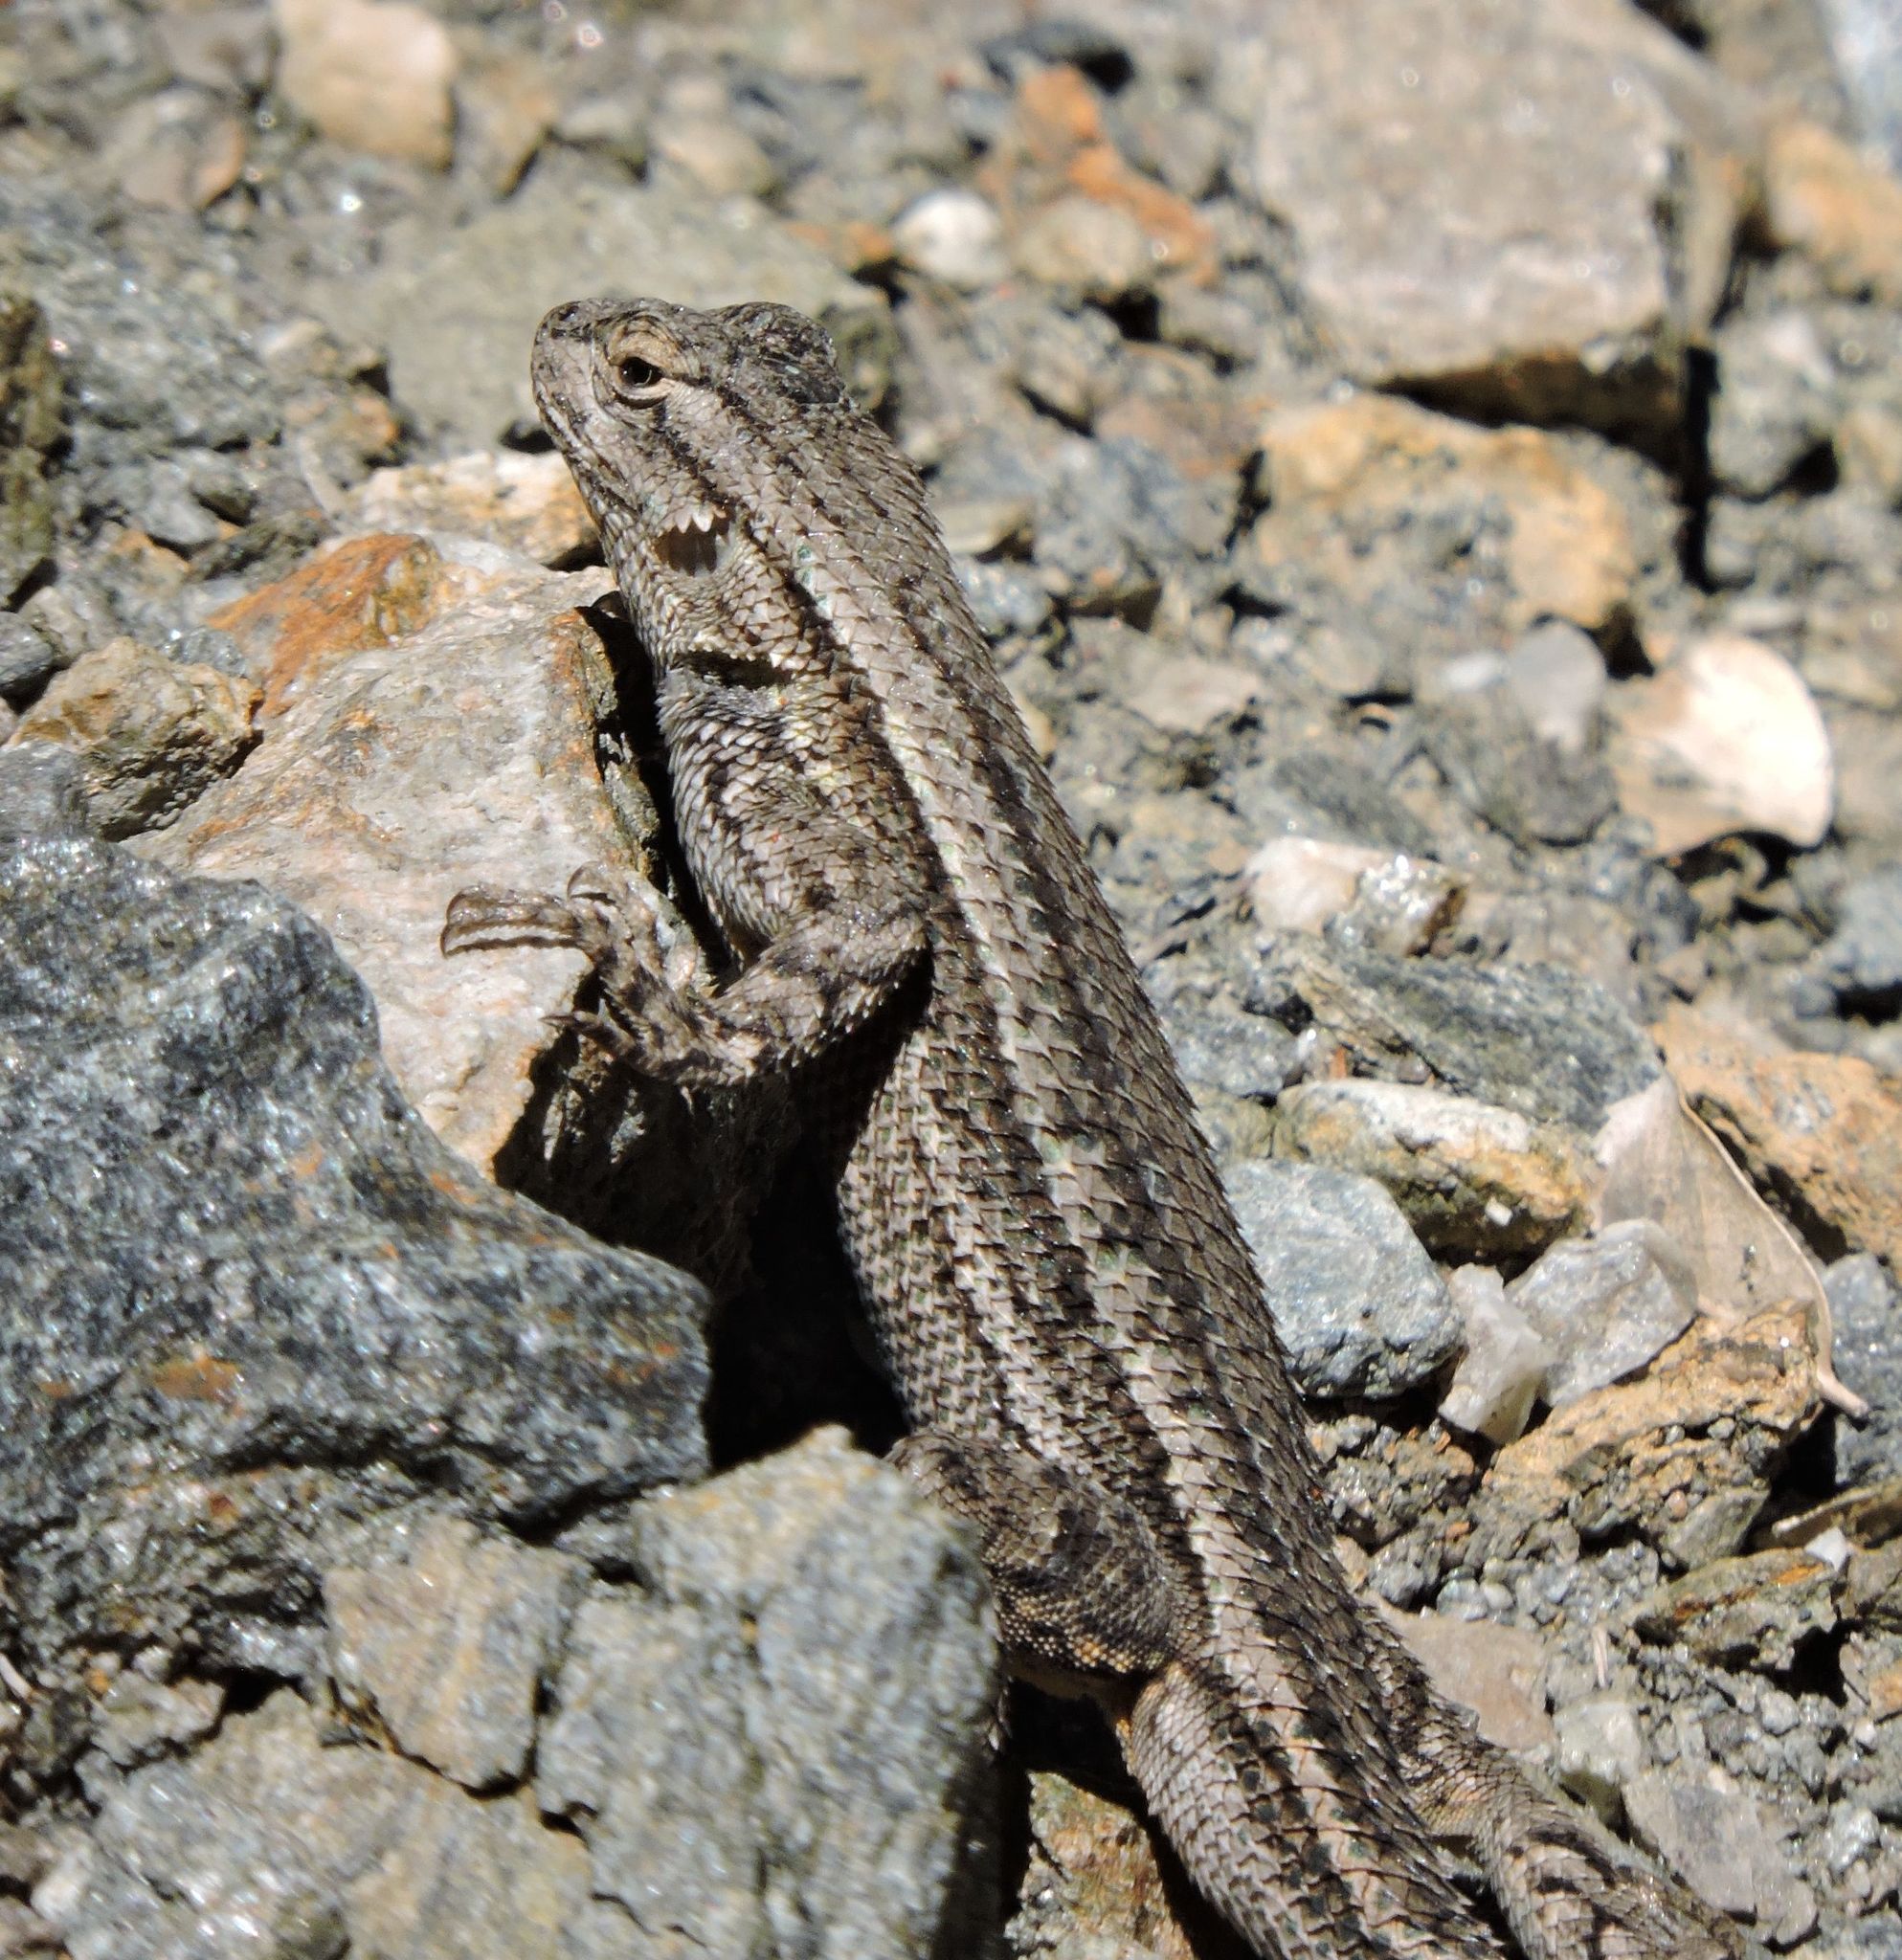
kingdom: Animalia
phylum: Chordata
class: Squamata
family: Phrynosomatidae
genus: Sceloporus
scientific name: Sceloporus occidentalis
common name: Western fence lizard
